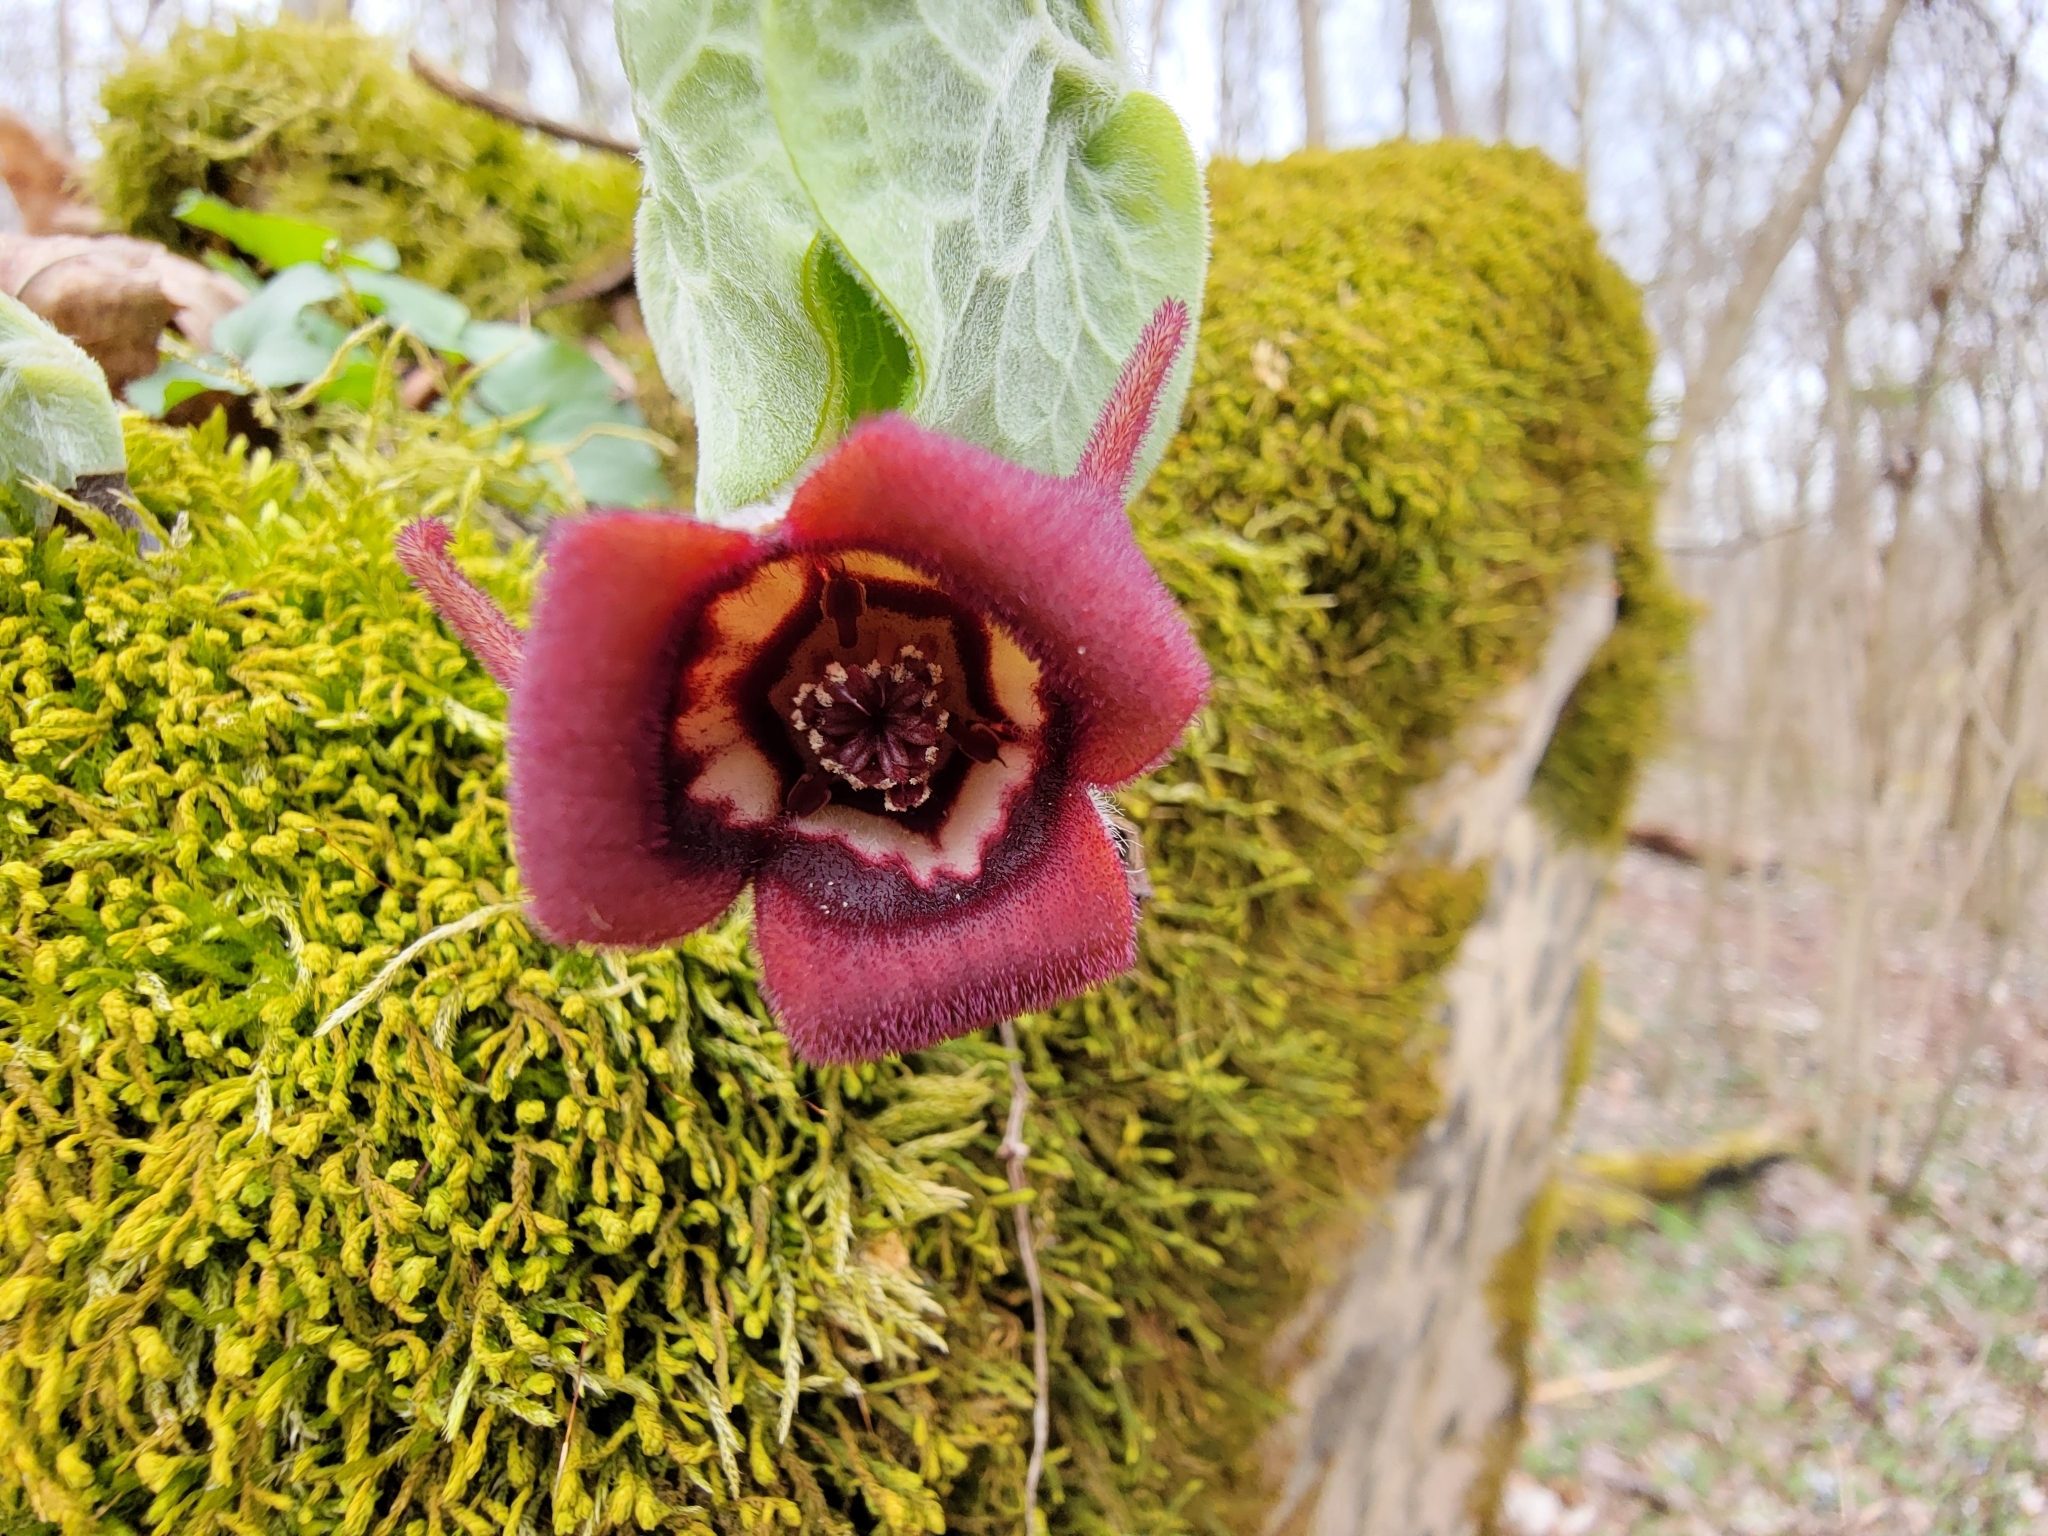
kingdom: Plantae
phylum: Tracheophyta
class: Magnoliopsida
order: Piperales
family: Aristolochiaceae
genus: Asarum
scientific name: Asarum canadense
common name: Wild ginger
